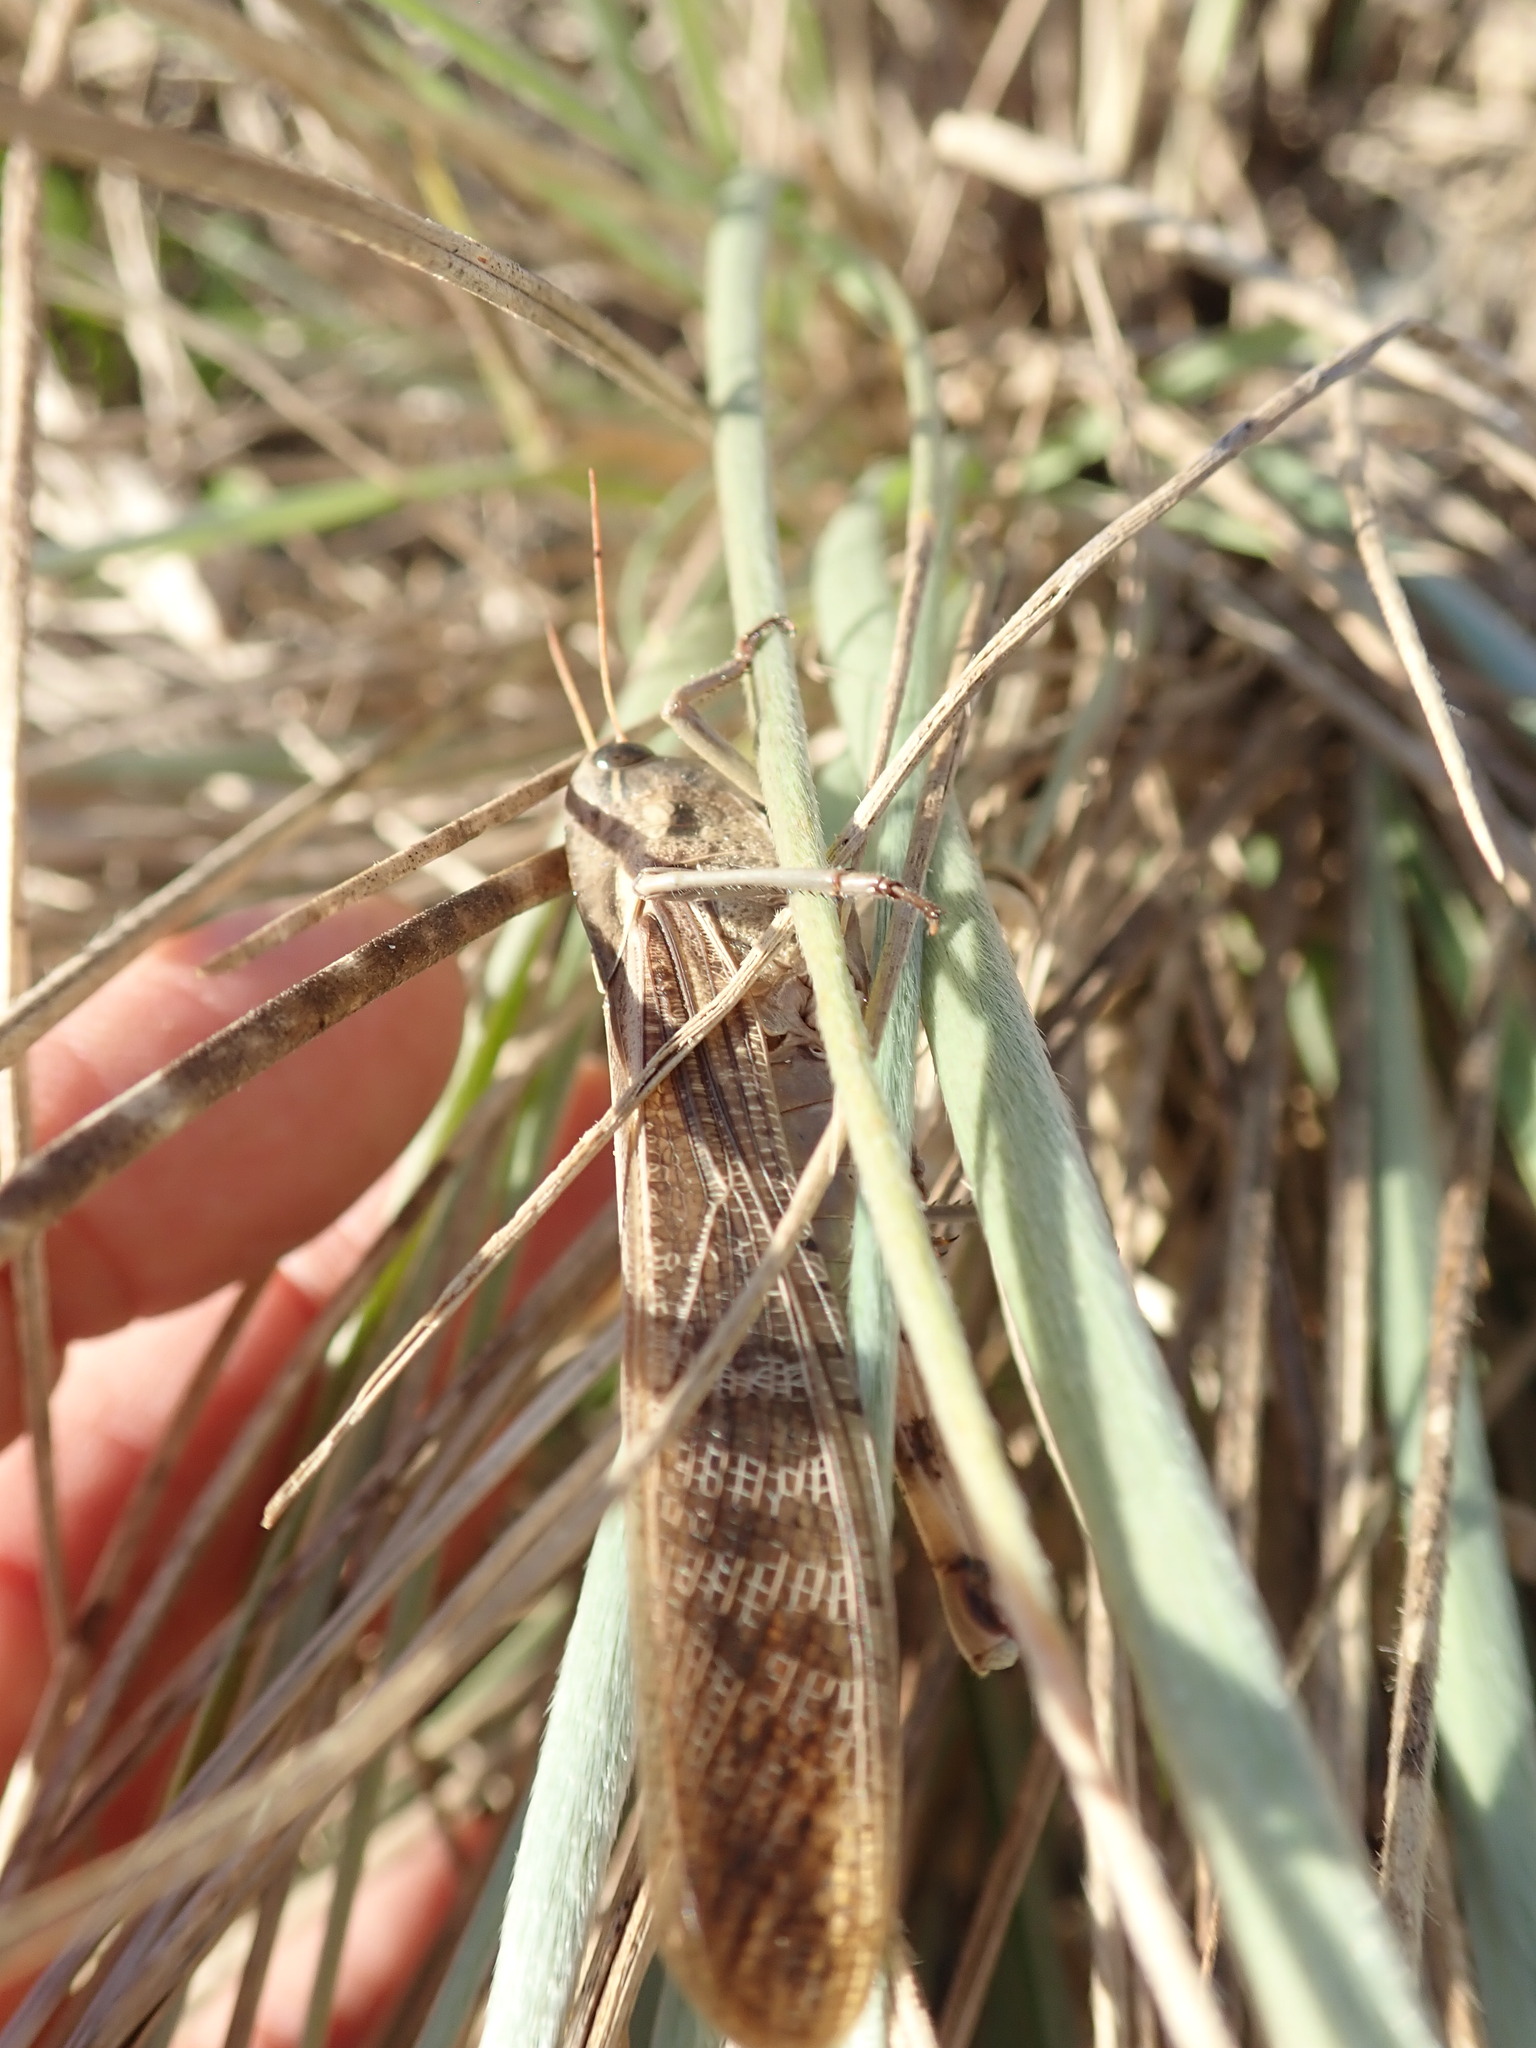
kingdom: Animalia
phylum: Arthropoda
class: Insecta
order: Orthoptera
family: Acrididae
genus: Locusta
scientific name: Locusta migratoria
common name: Migratory locust
